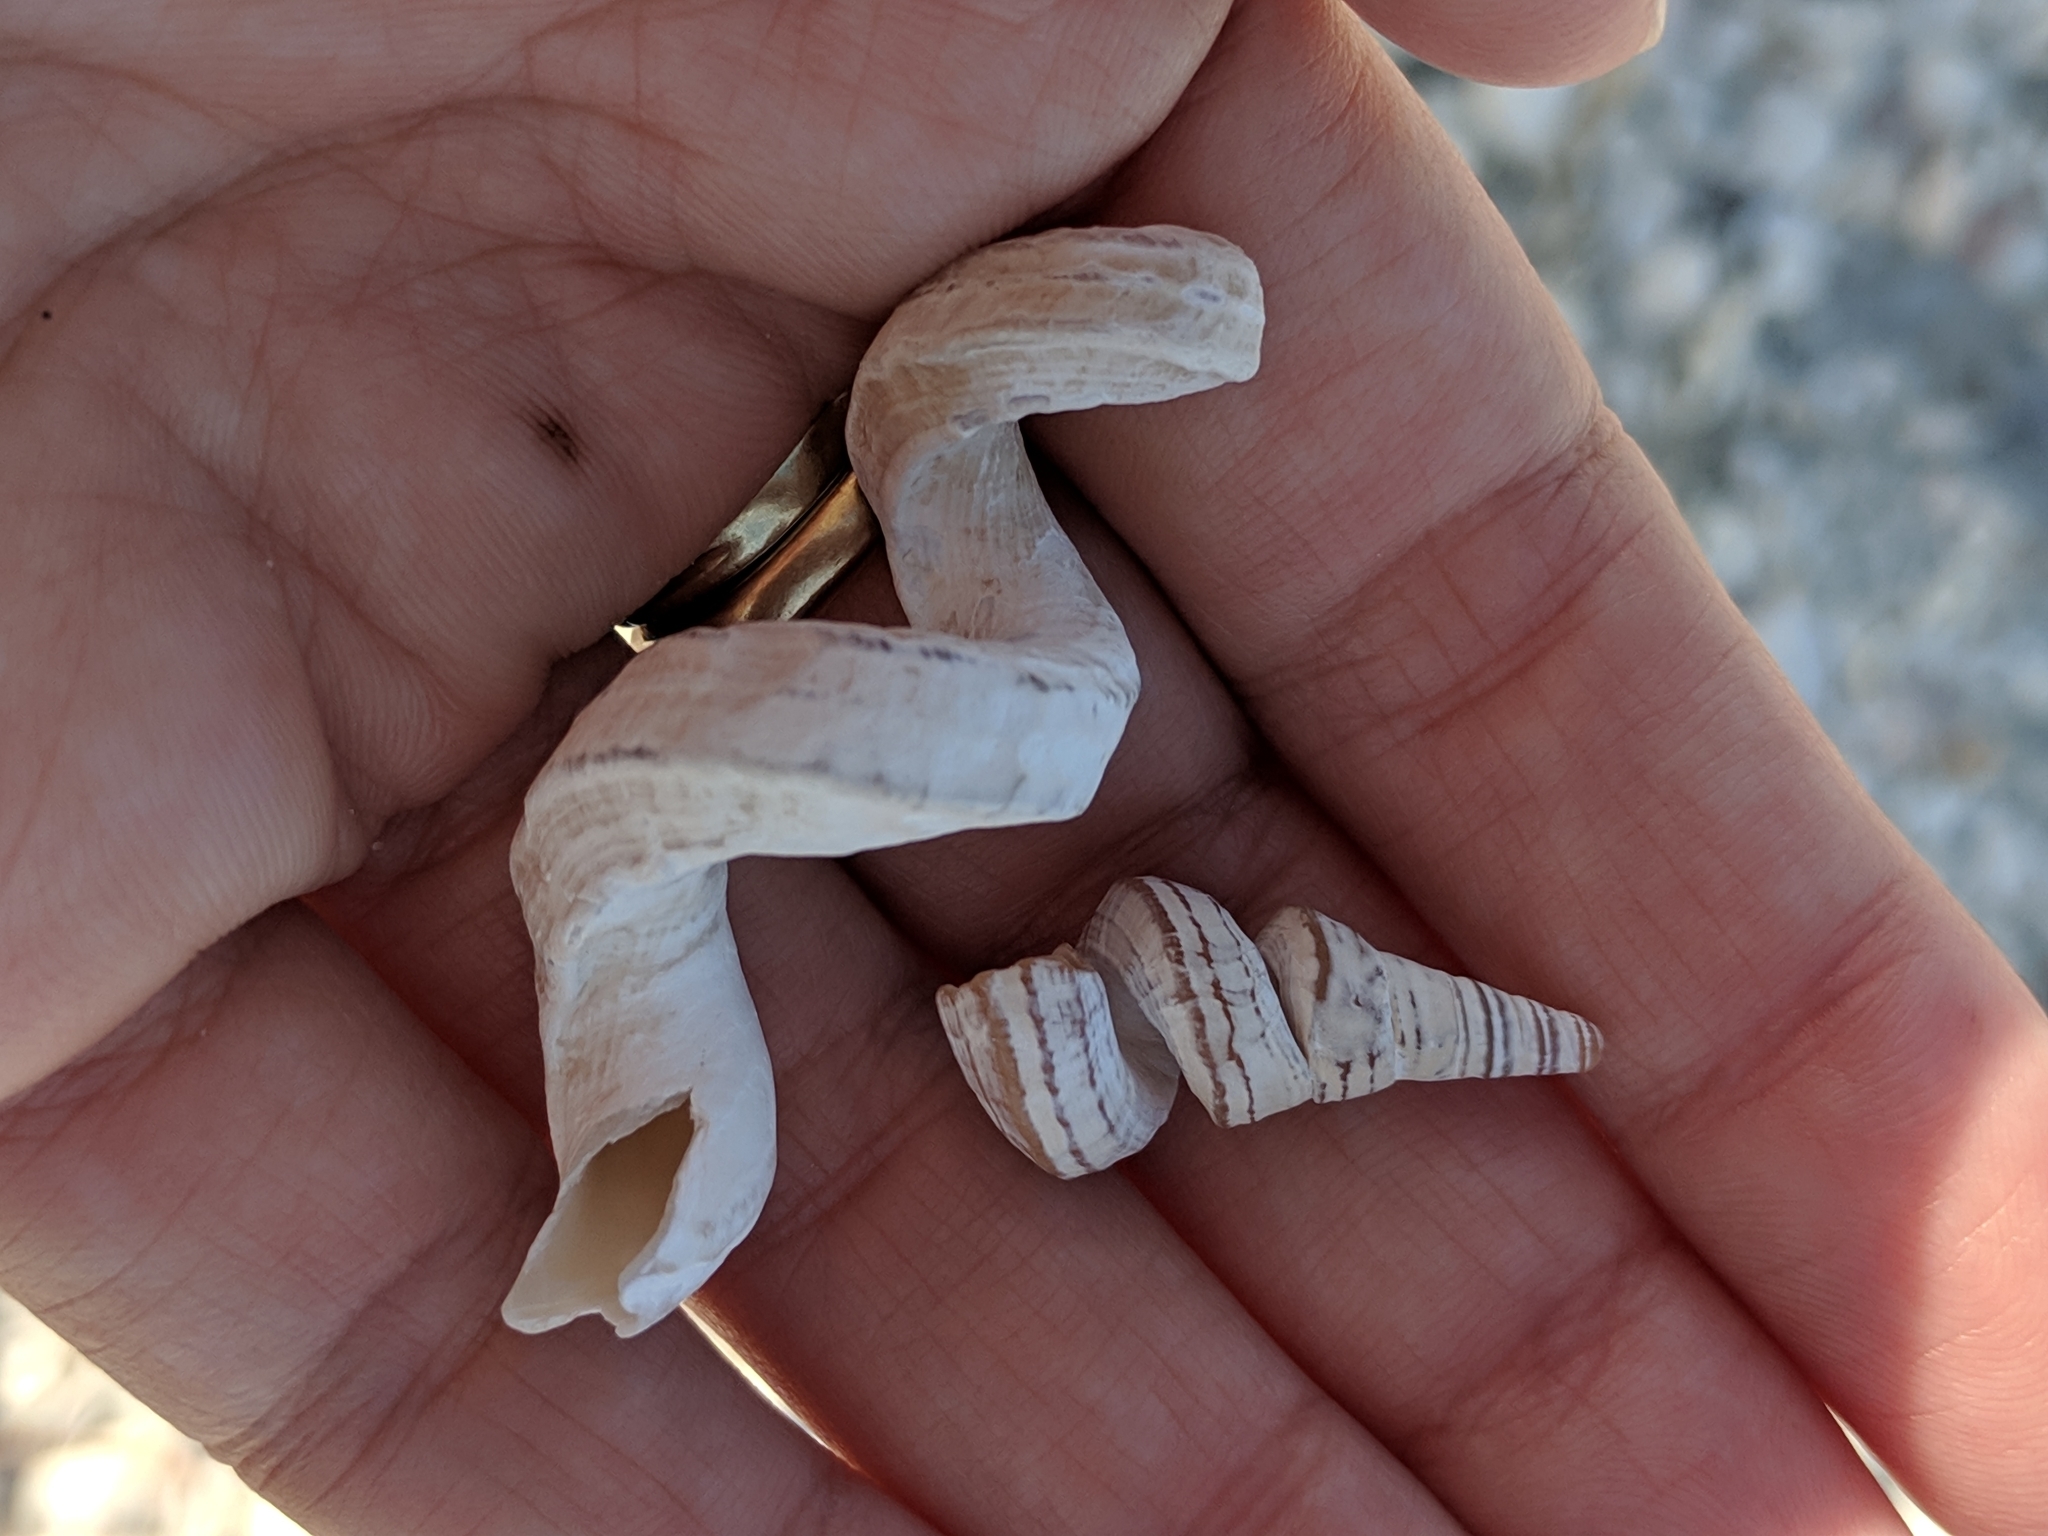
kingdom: Animalia
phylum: Mollusca
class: Gastropoda
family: Turritellidae
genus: Vermicularia
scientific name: Vermicularia fargoi
